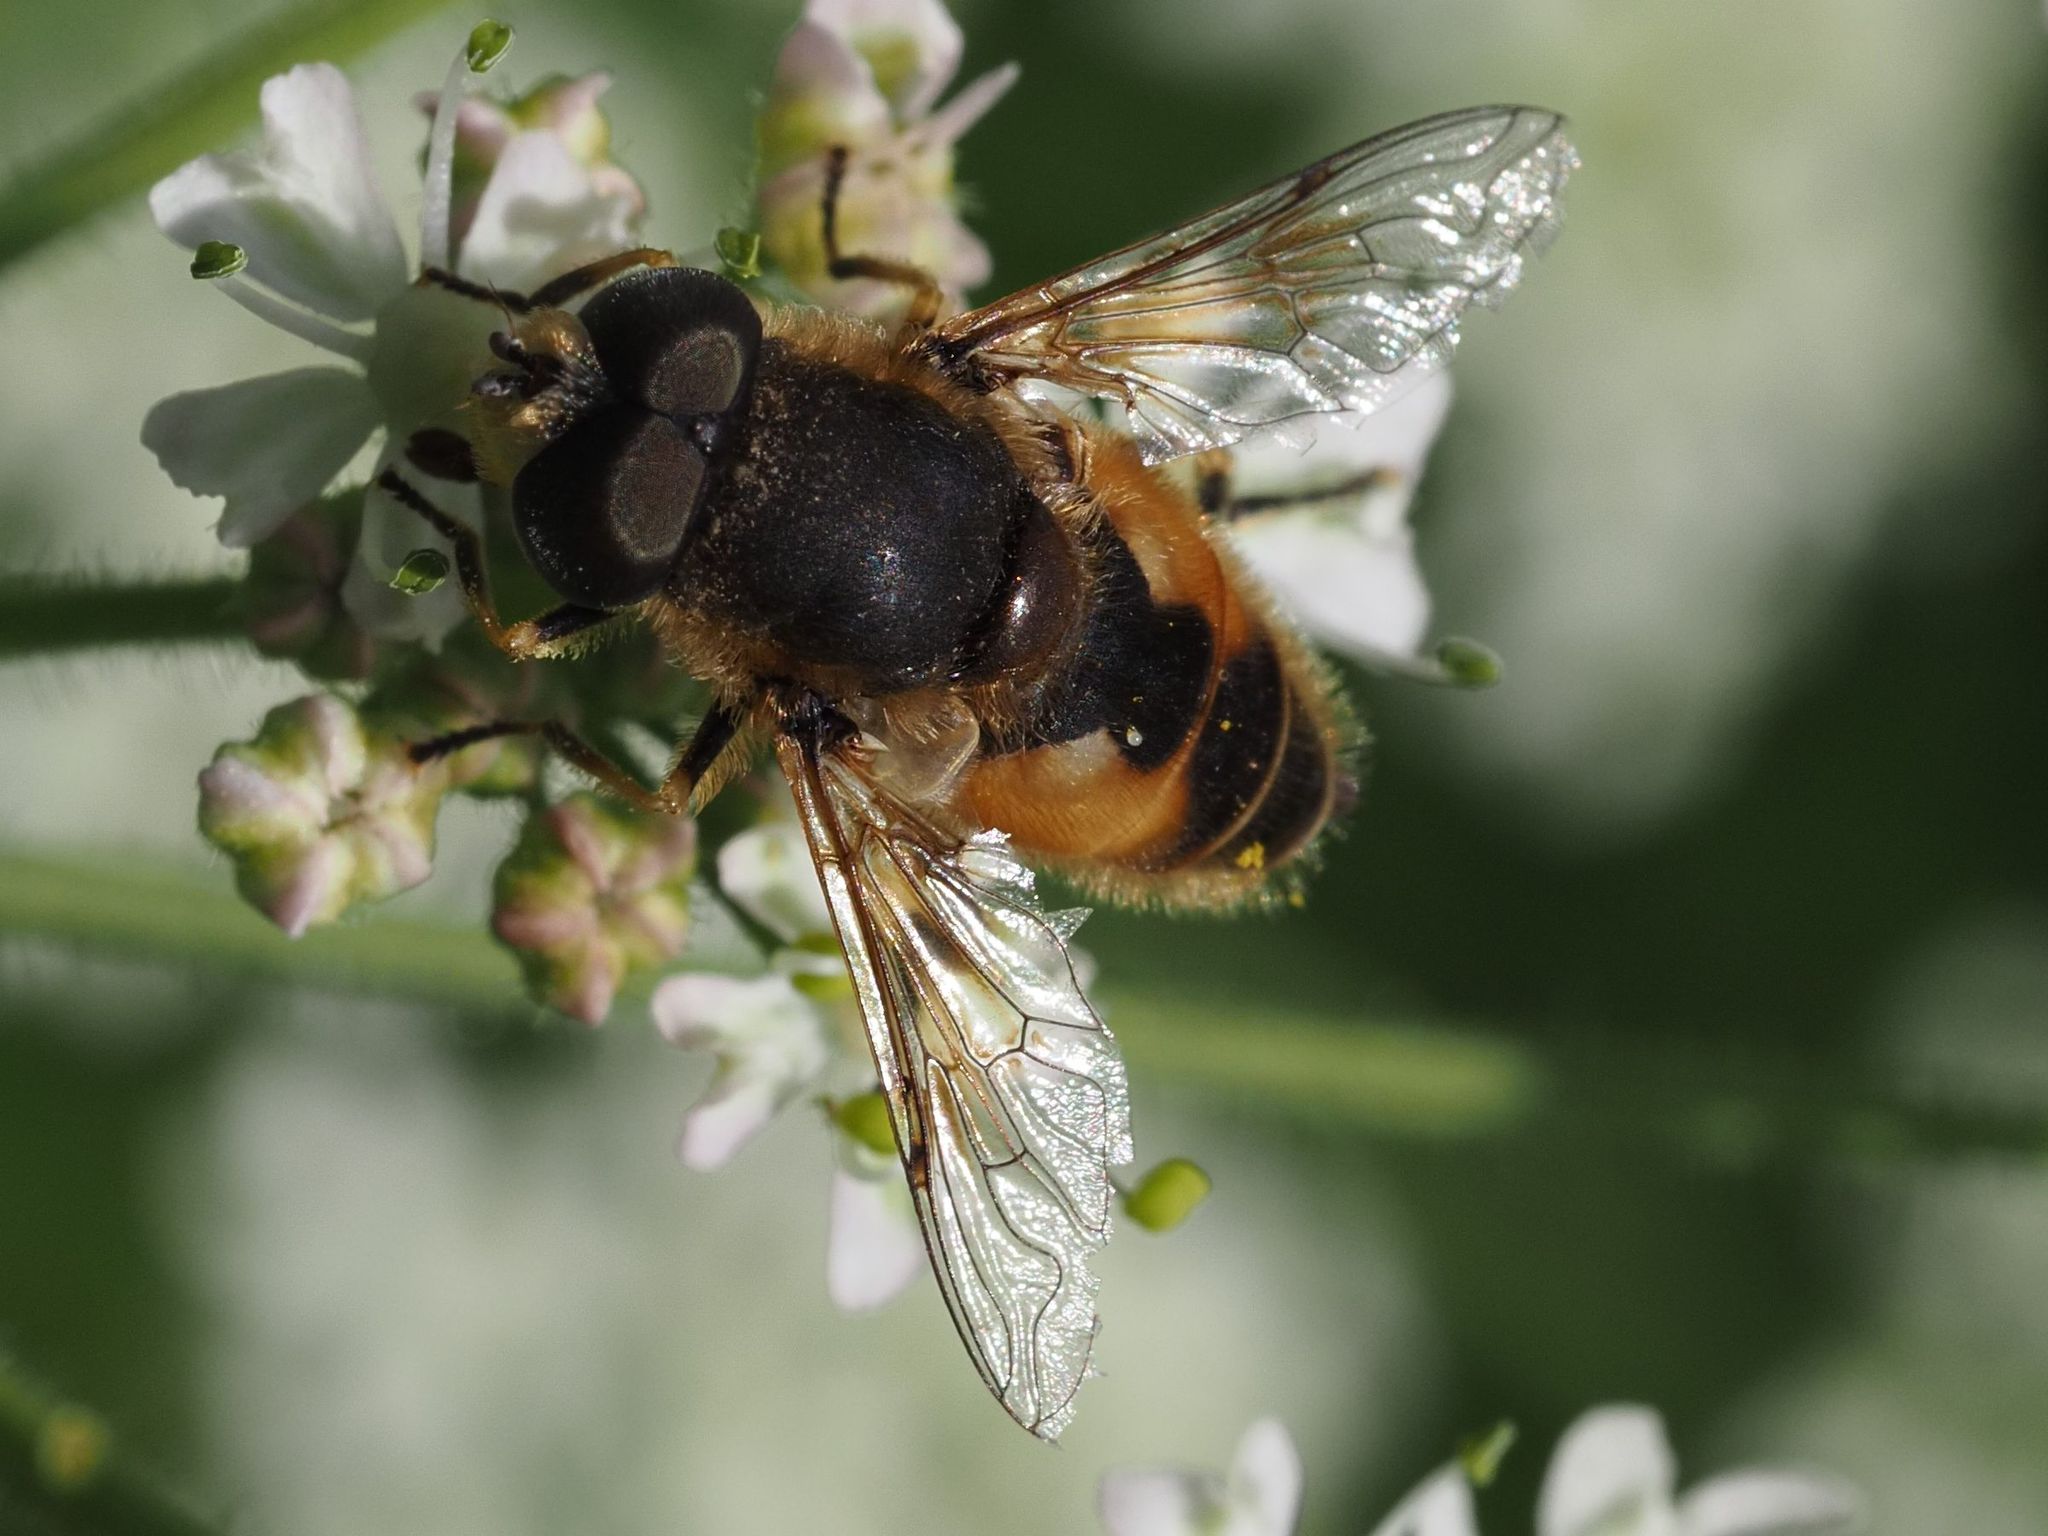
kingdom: Animalia
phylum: Arthropoda
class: Insecta
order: Diptera
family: Syrphidae
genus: Eristalis
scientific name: Eristalis arbustorum
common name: Hover fly
